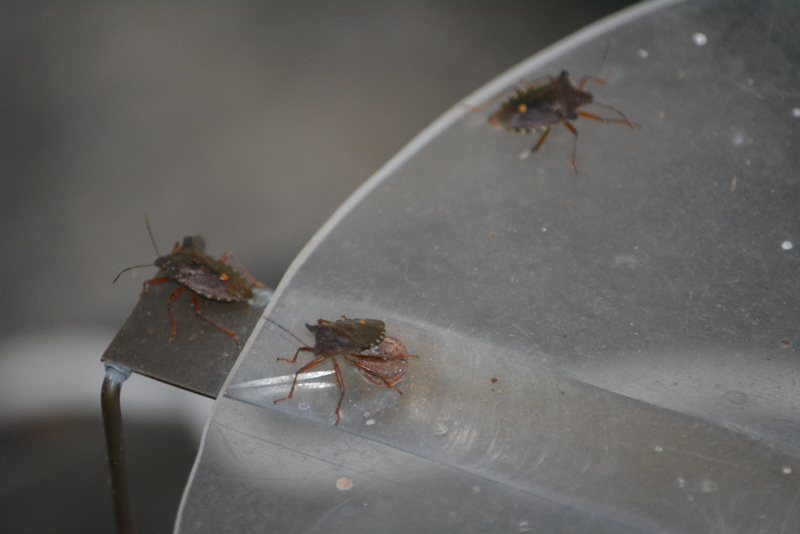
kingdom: Animalia
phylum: Arthropoda
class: Insecta
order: Hemiptera
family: Pentatomidae
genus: Pentatoma
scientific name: Pentatoma rufipes
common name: Forest bug
